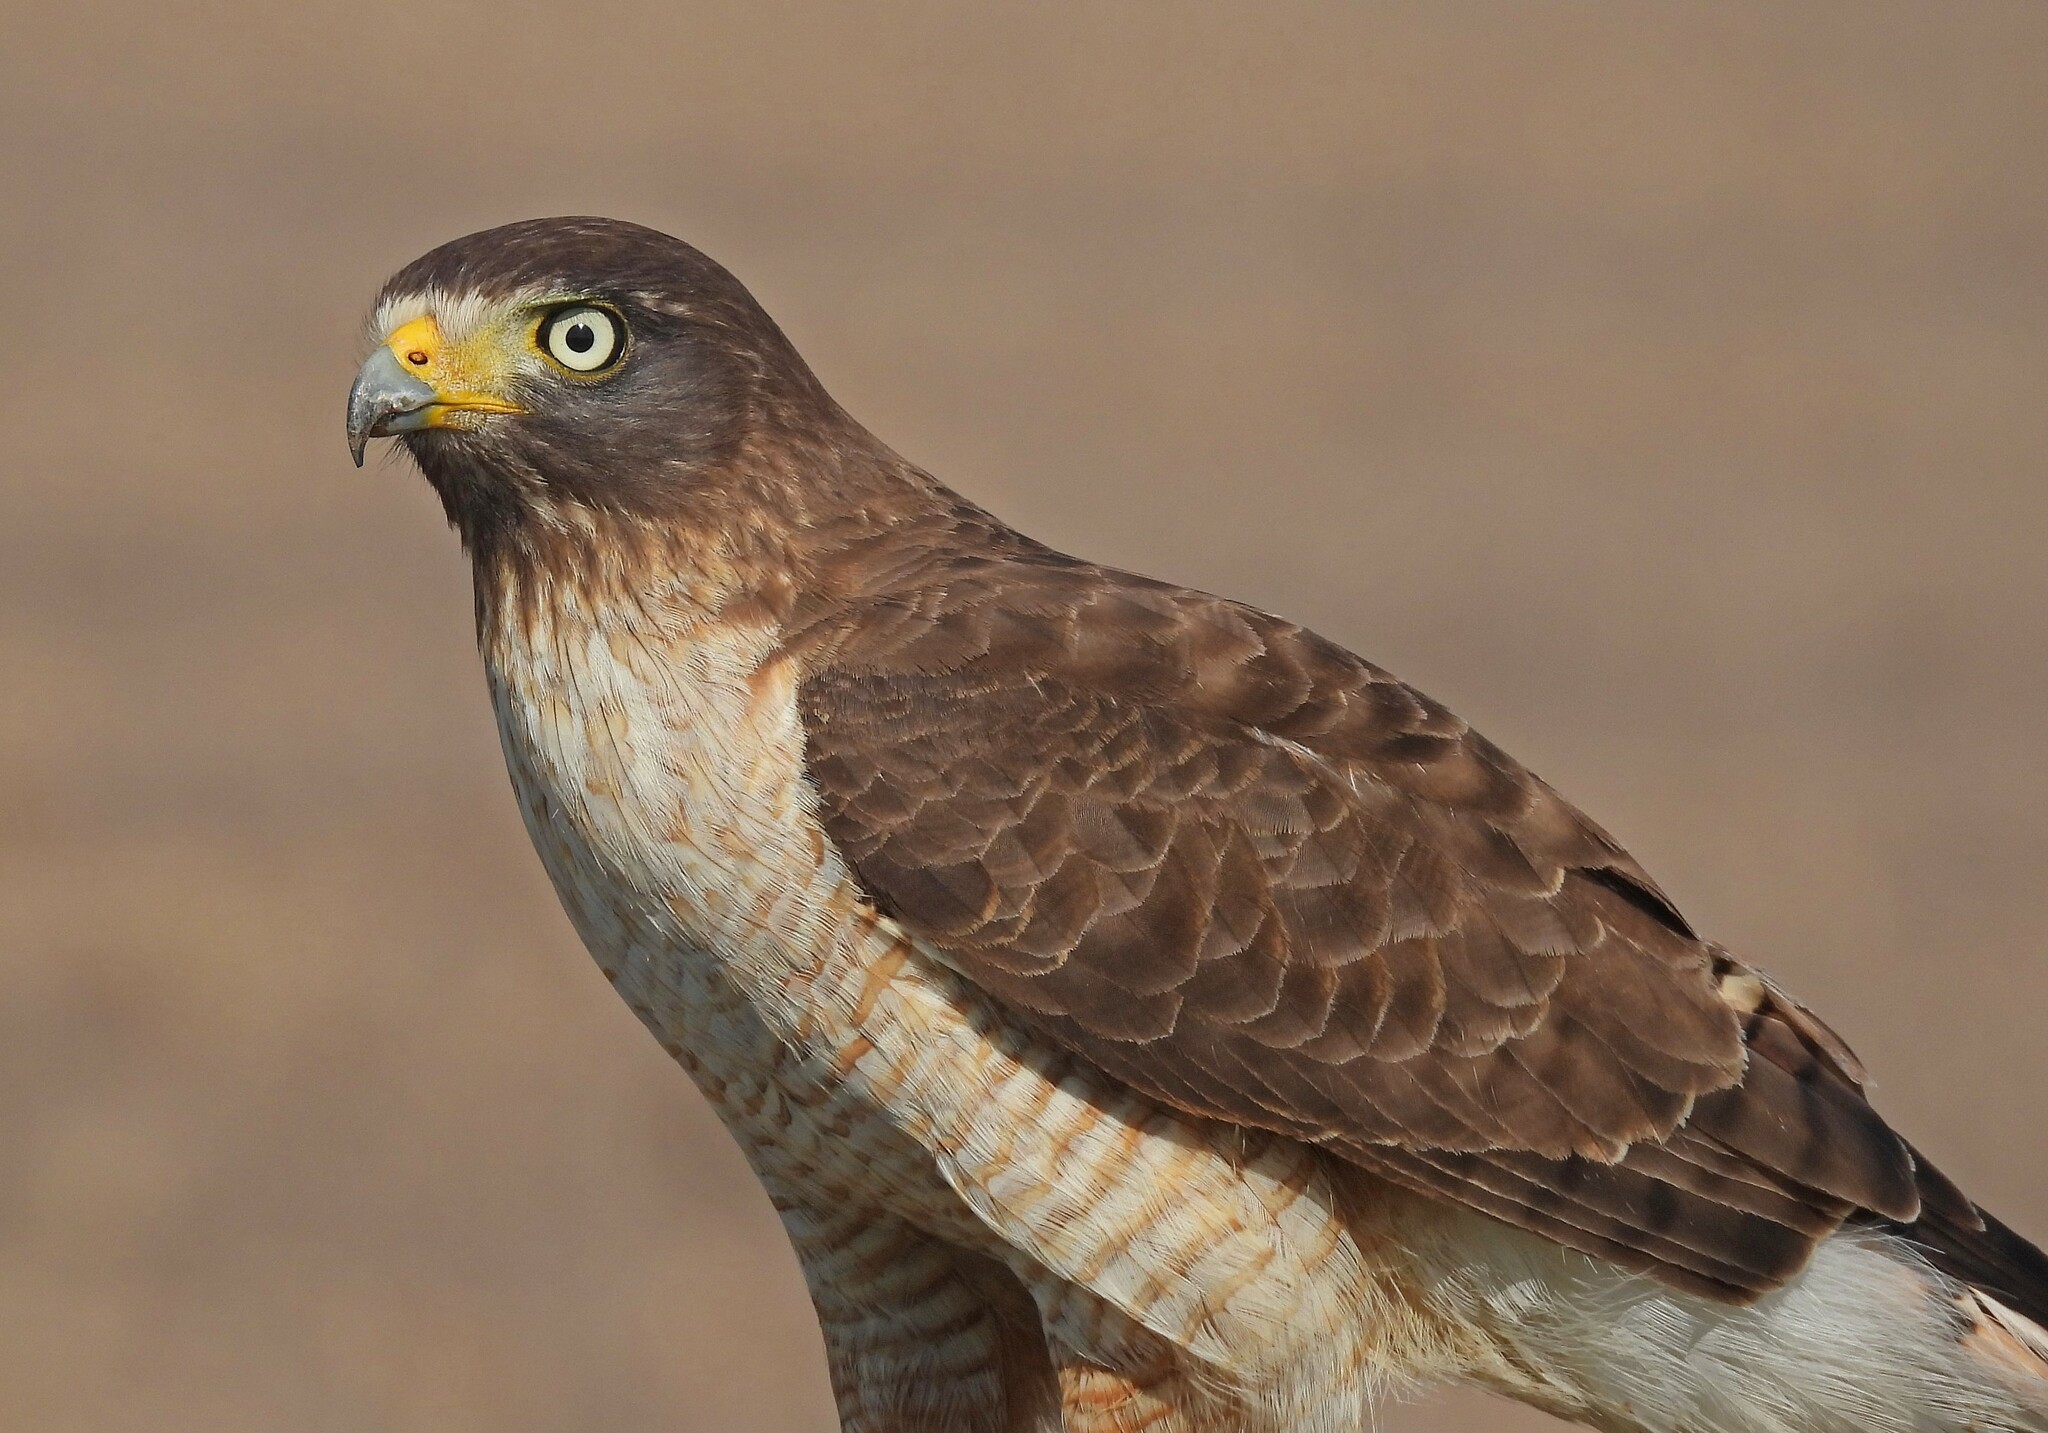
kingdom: Animalia
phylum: Chordata
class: Aves
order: Accipitriformes
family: Accipitridae
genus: Rupornis
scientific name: Rupornis magnirostris
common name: Roadside hawk
